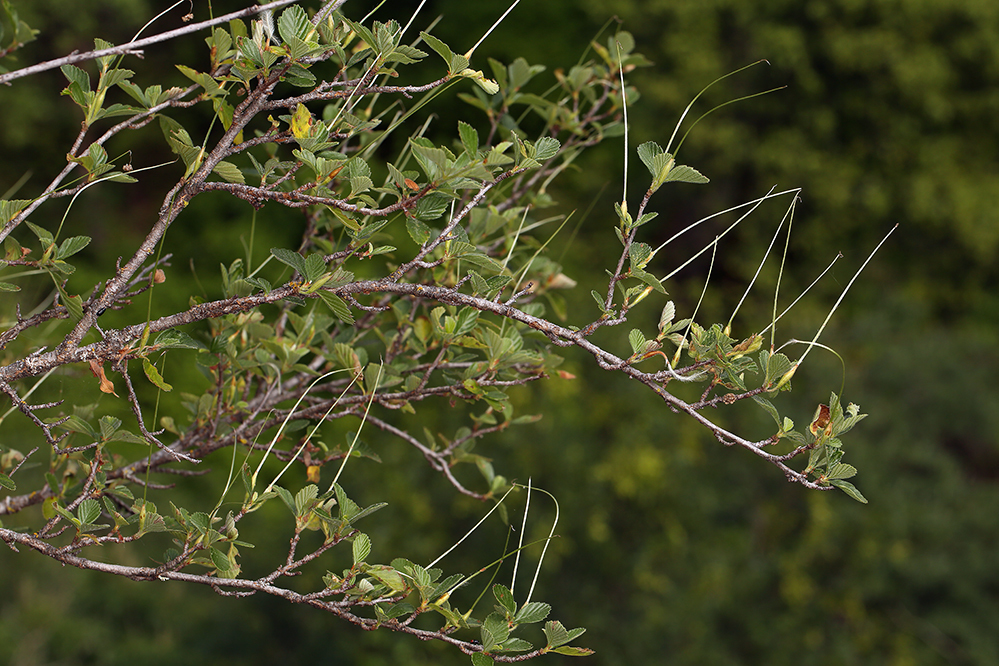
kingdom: Plantae
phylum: Tracheophyta
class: Magnoliopsida
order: Rosales
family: Rosaceae
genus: Cercocarpus
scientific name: Cercocarpus betuloides
